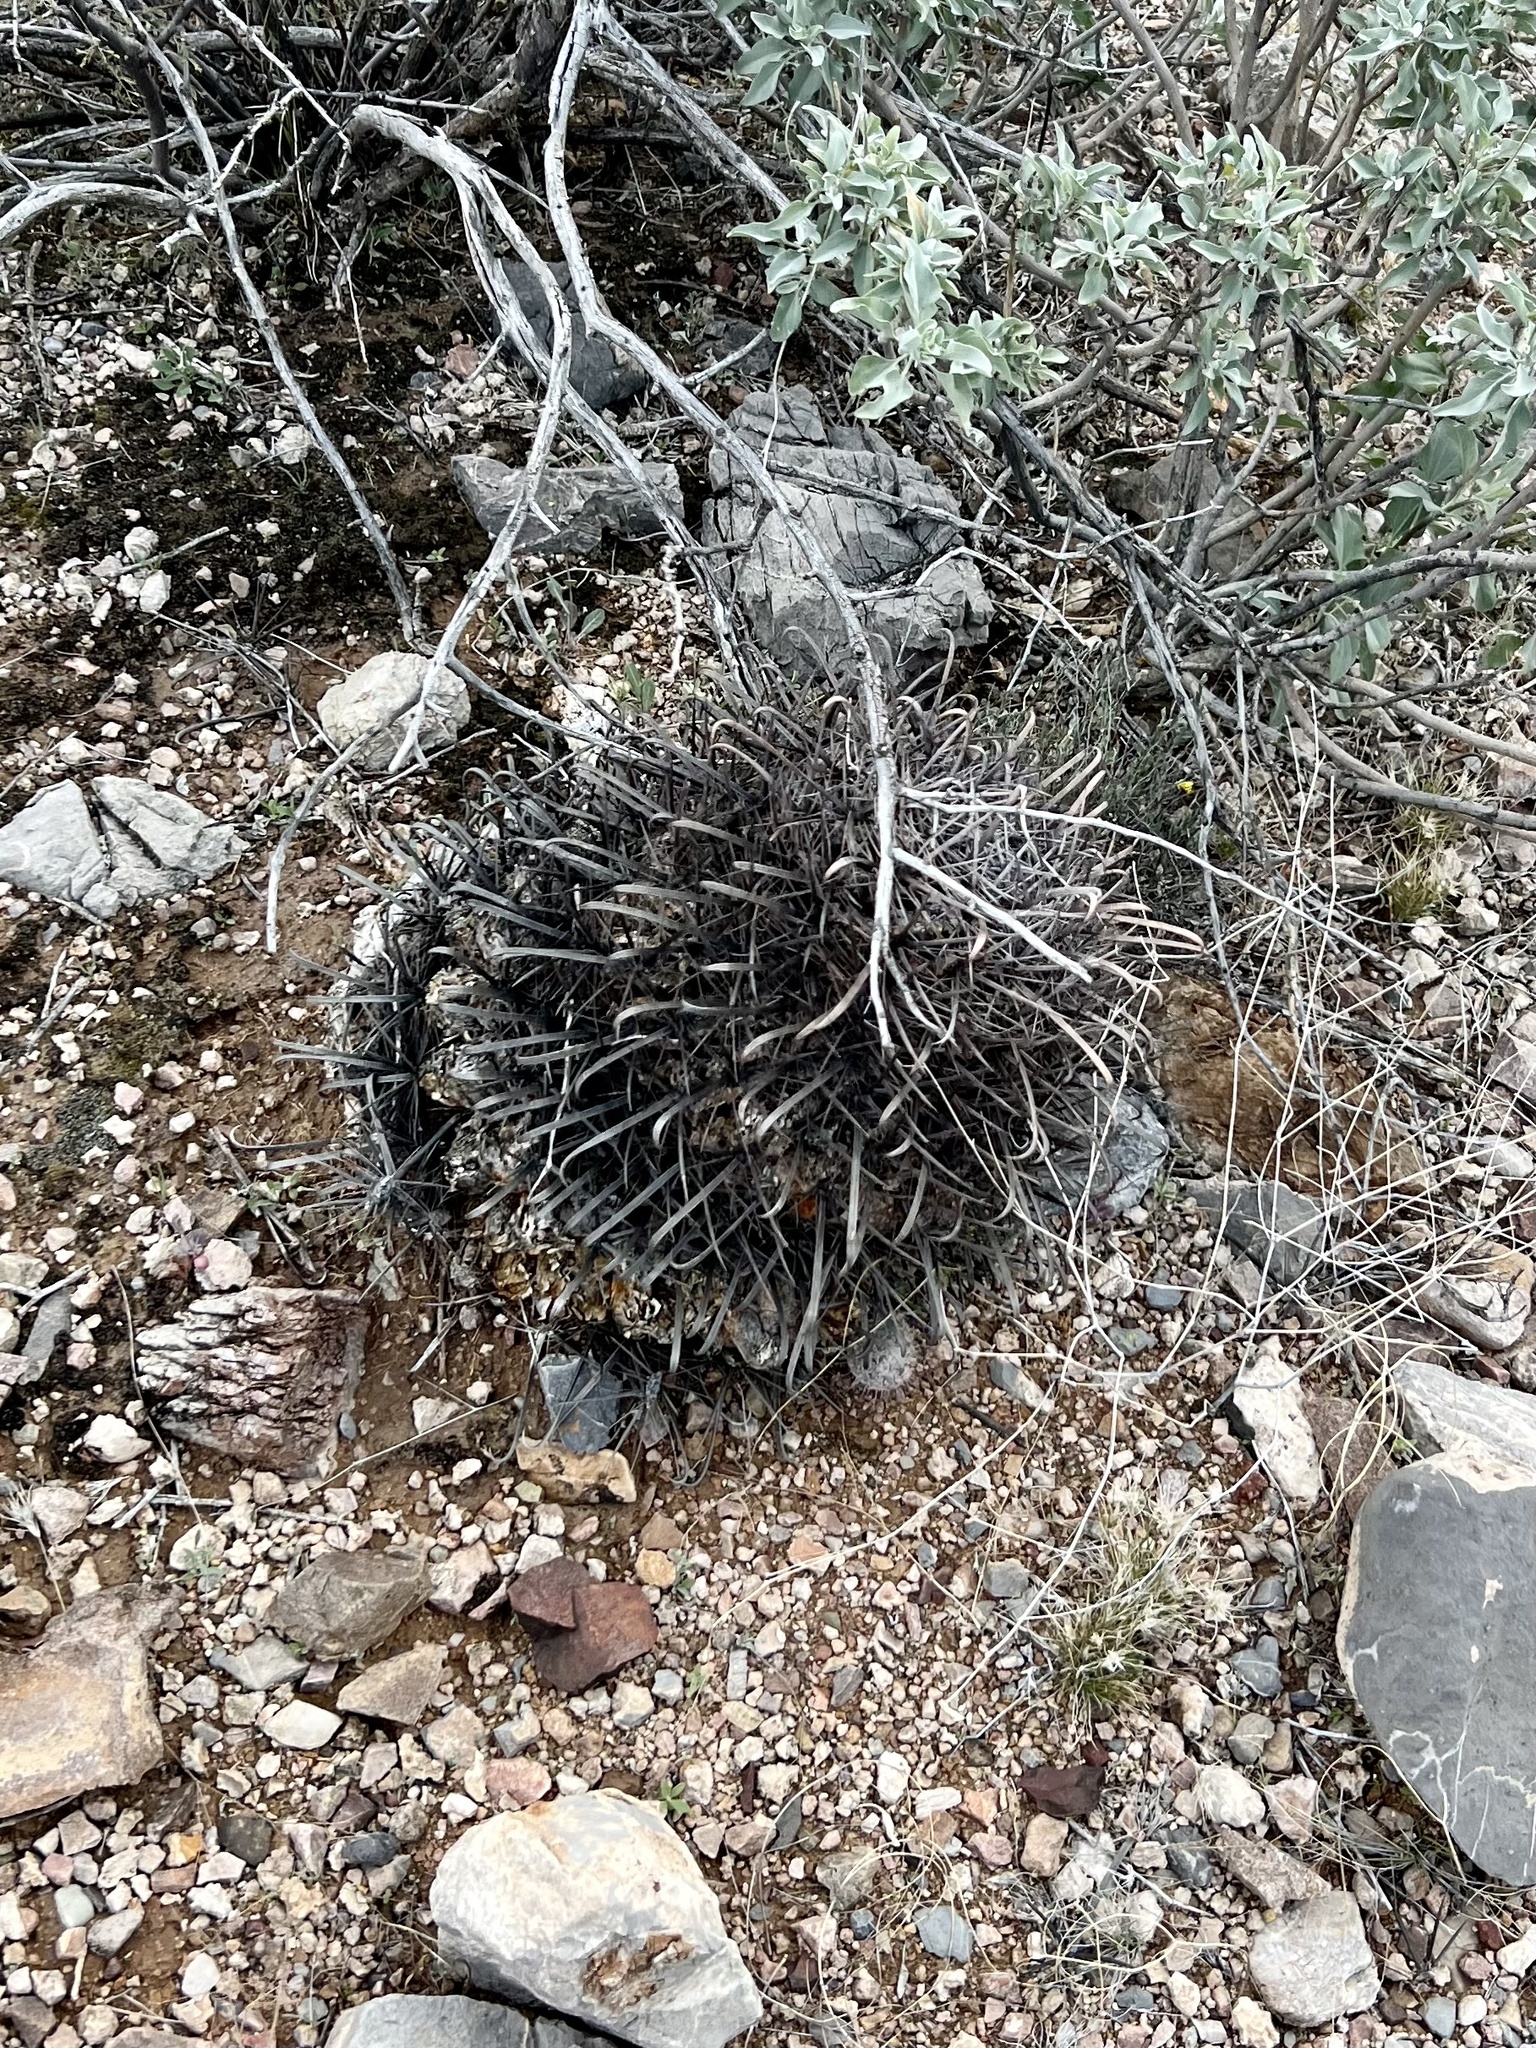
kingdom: Plantae
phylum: Tracheophyta
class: Magnoliopsida
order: Caryophyllales
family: Cactaceae
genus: Ferocactus
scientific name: Ferocactus wislizeni
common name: Candy barrel cactus
